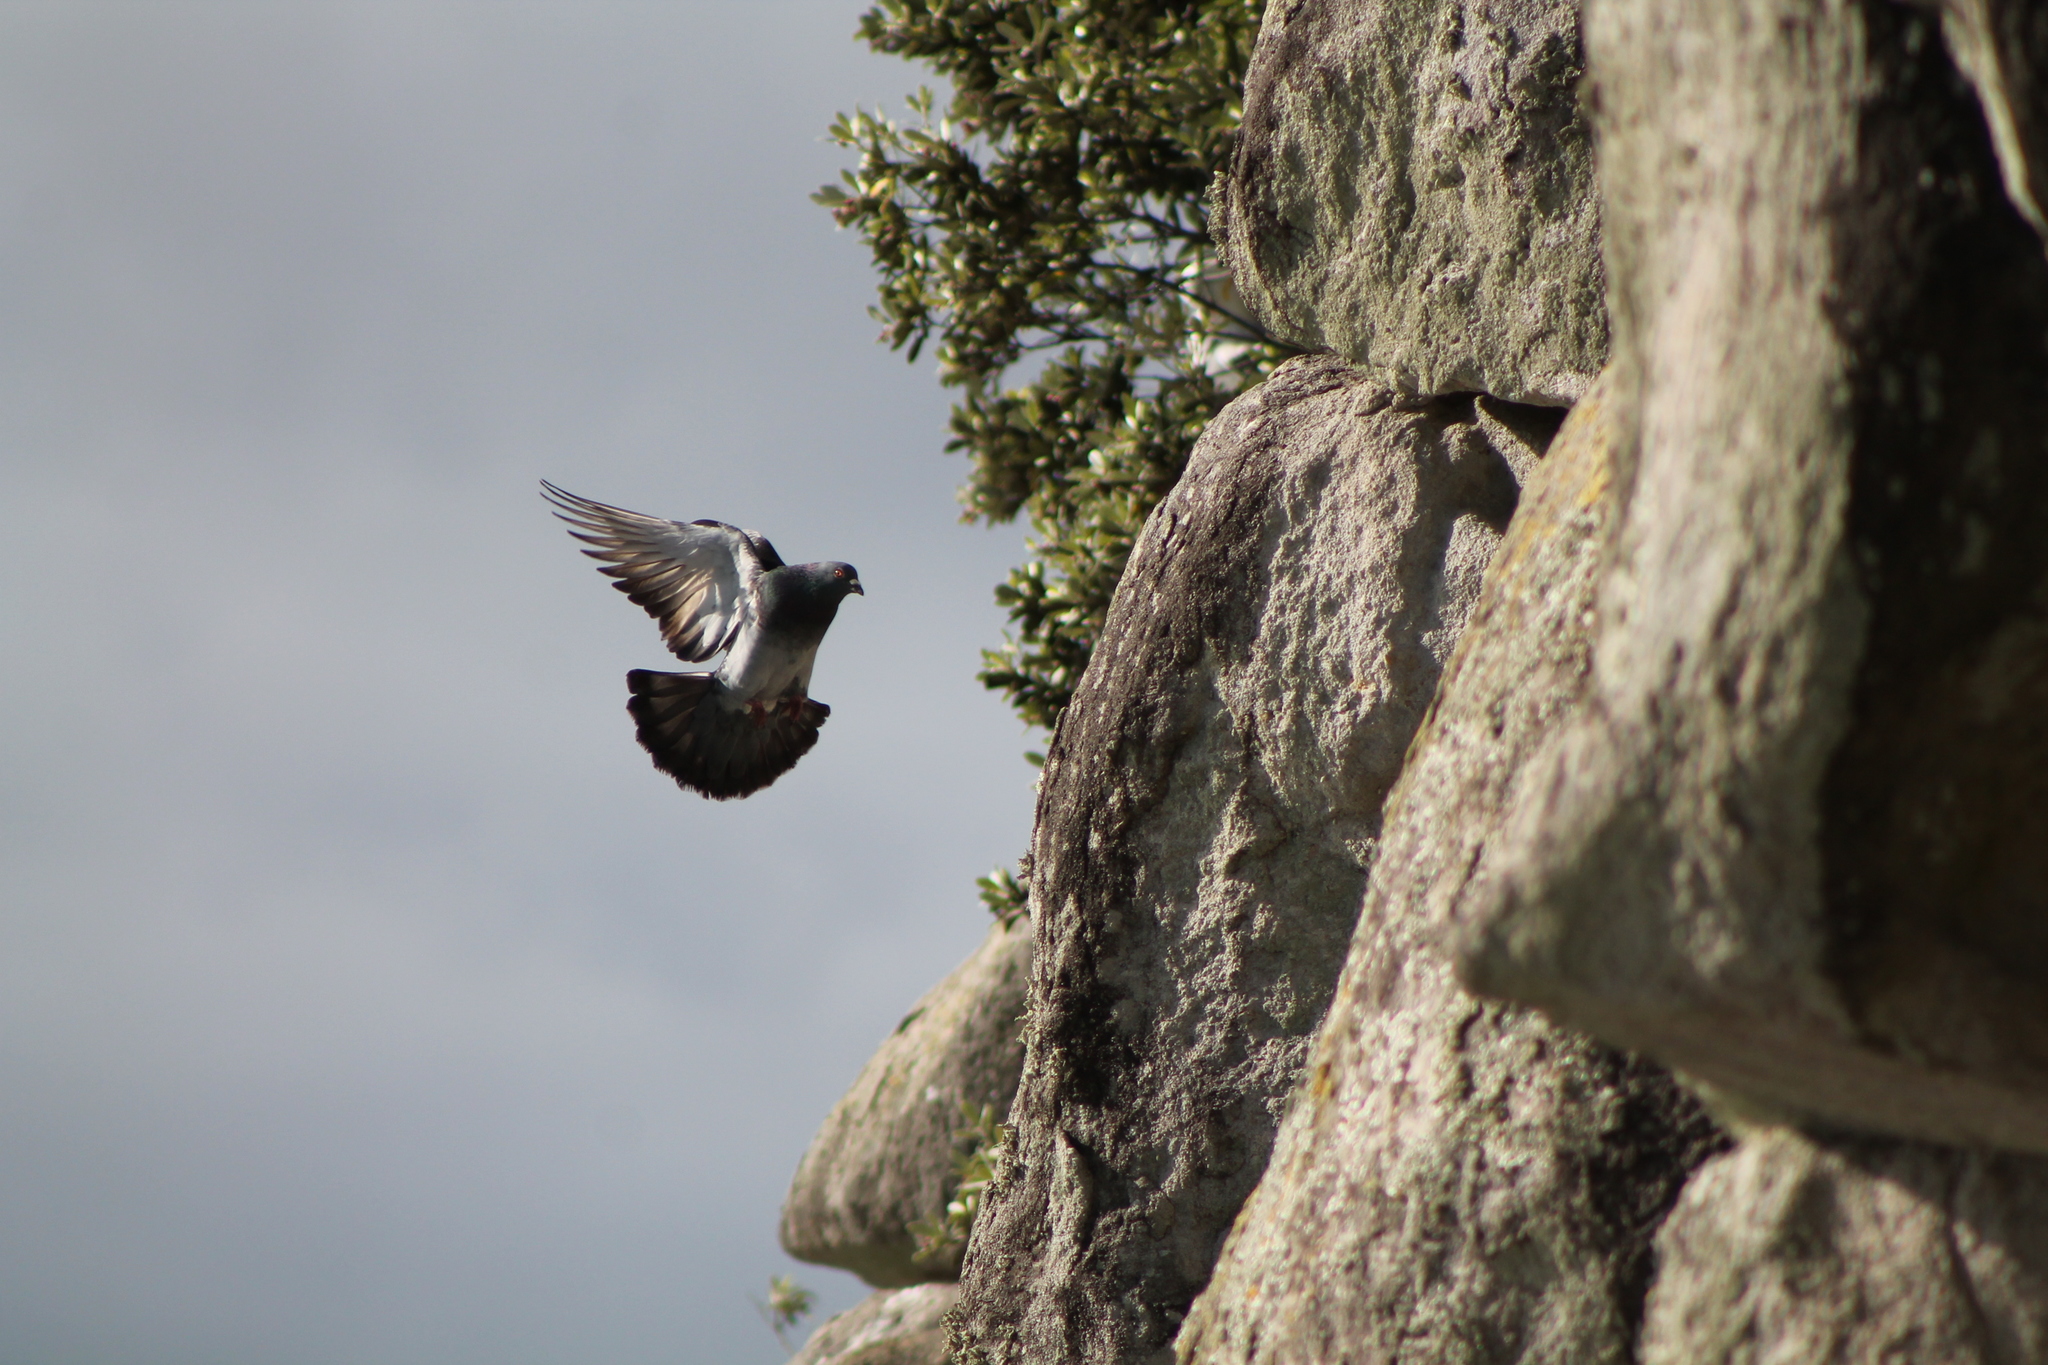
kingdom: Animalia
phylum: Chordata
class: Aves
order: Columbiformes
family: Columbidae
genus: Columba
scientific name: Columba livia
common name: Rock pigeon
